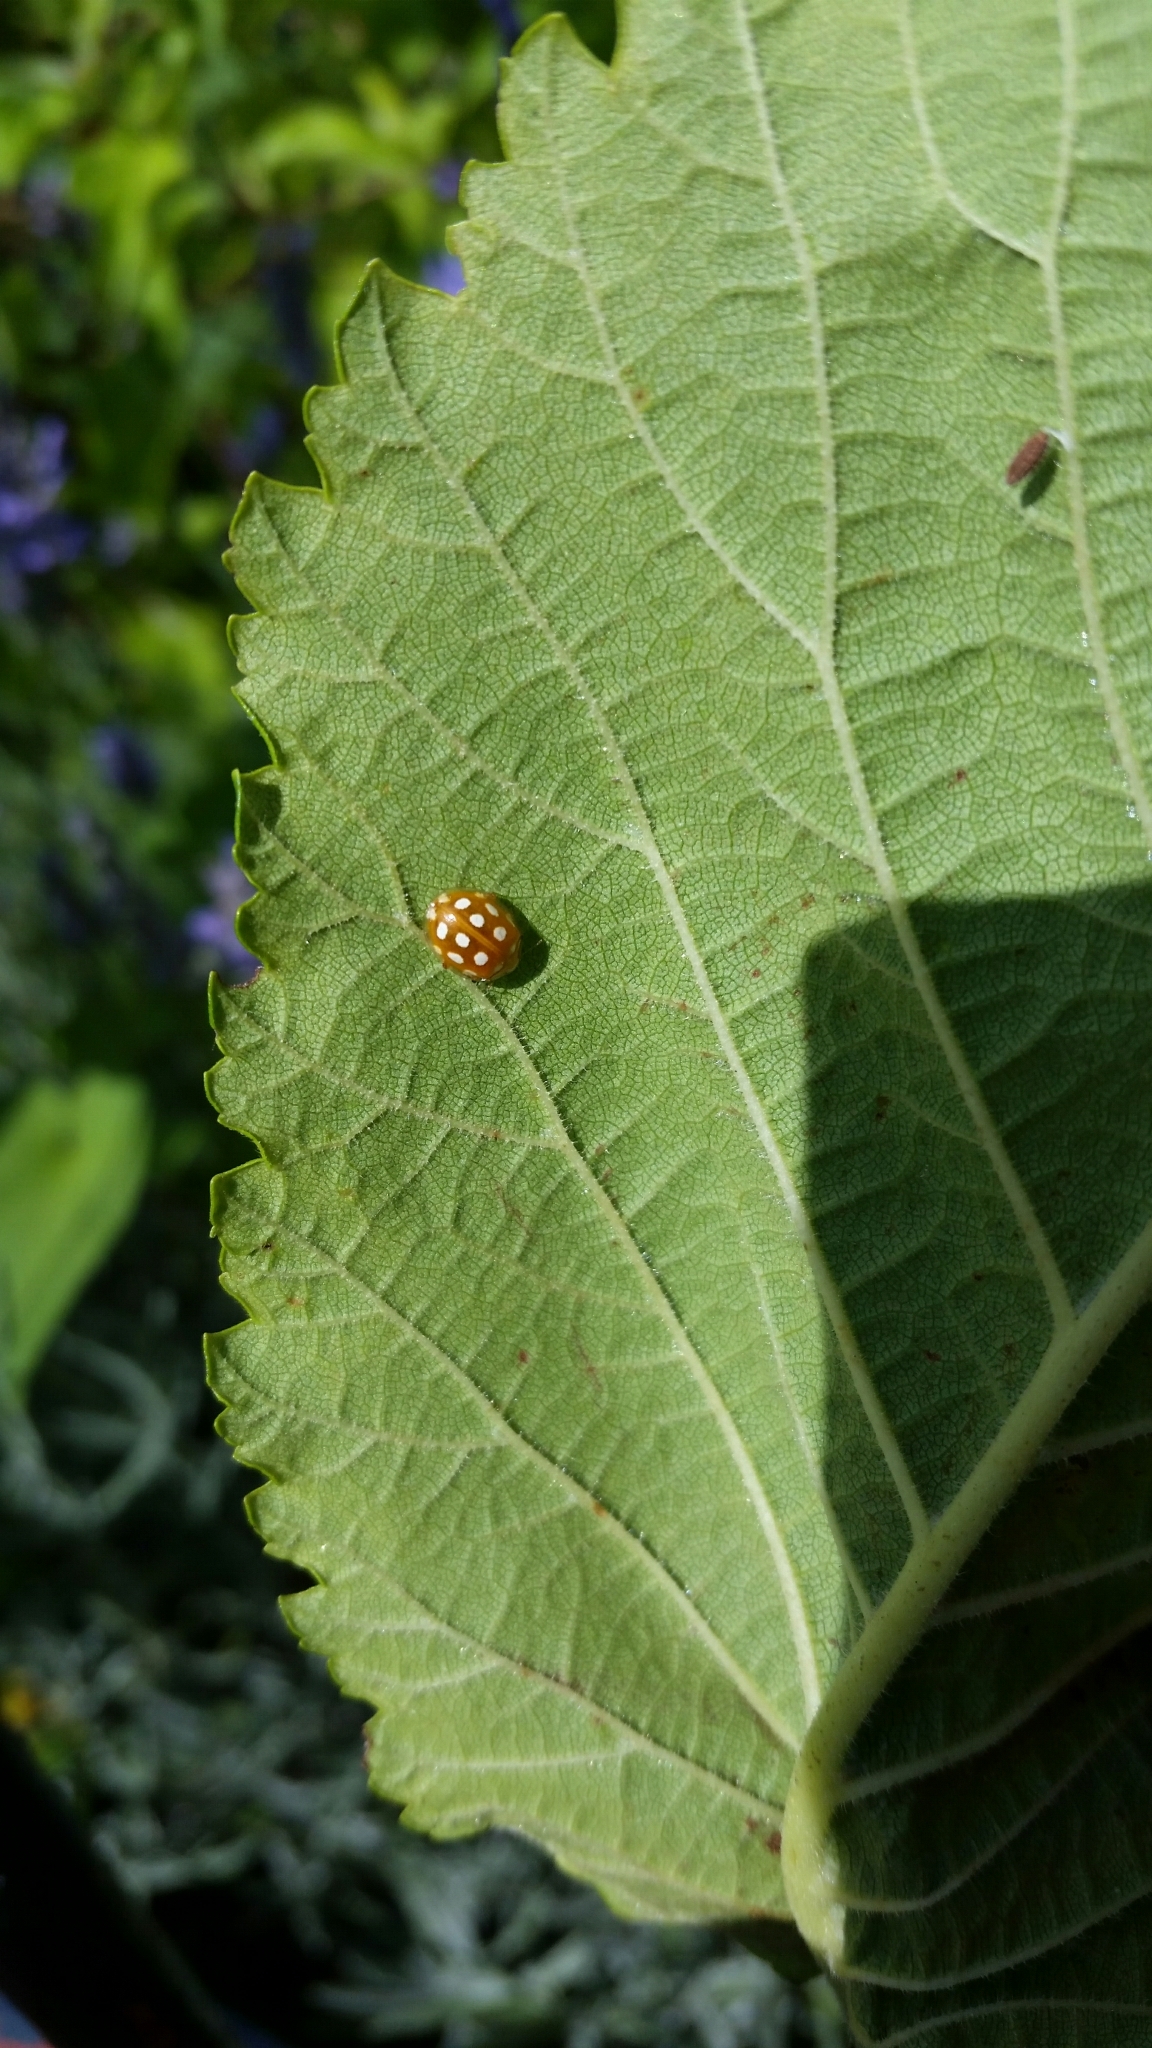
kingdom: Animalia
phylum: Arthropoda
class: Insecta
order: Coleoptera
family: Coccinellidae
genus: Halyzia
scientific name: Halyzia sedecimguttata
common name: Orange ladybird
